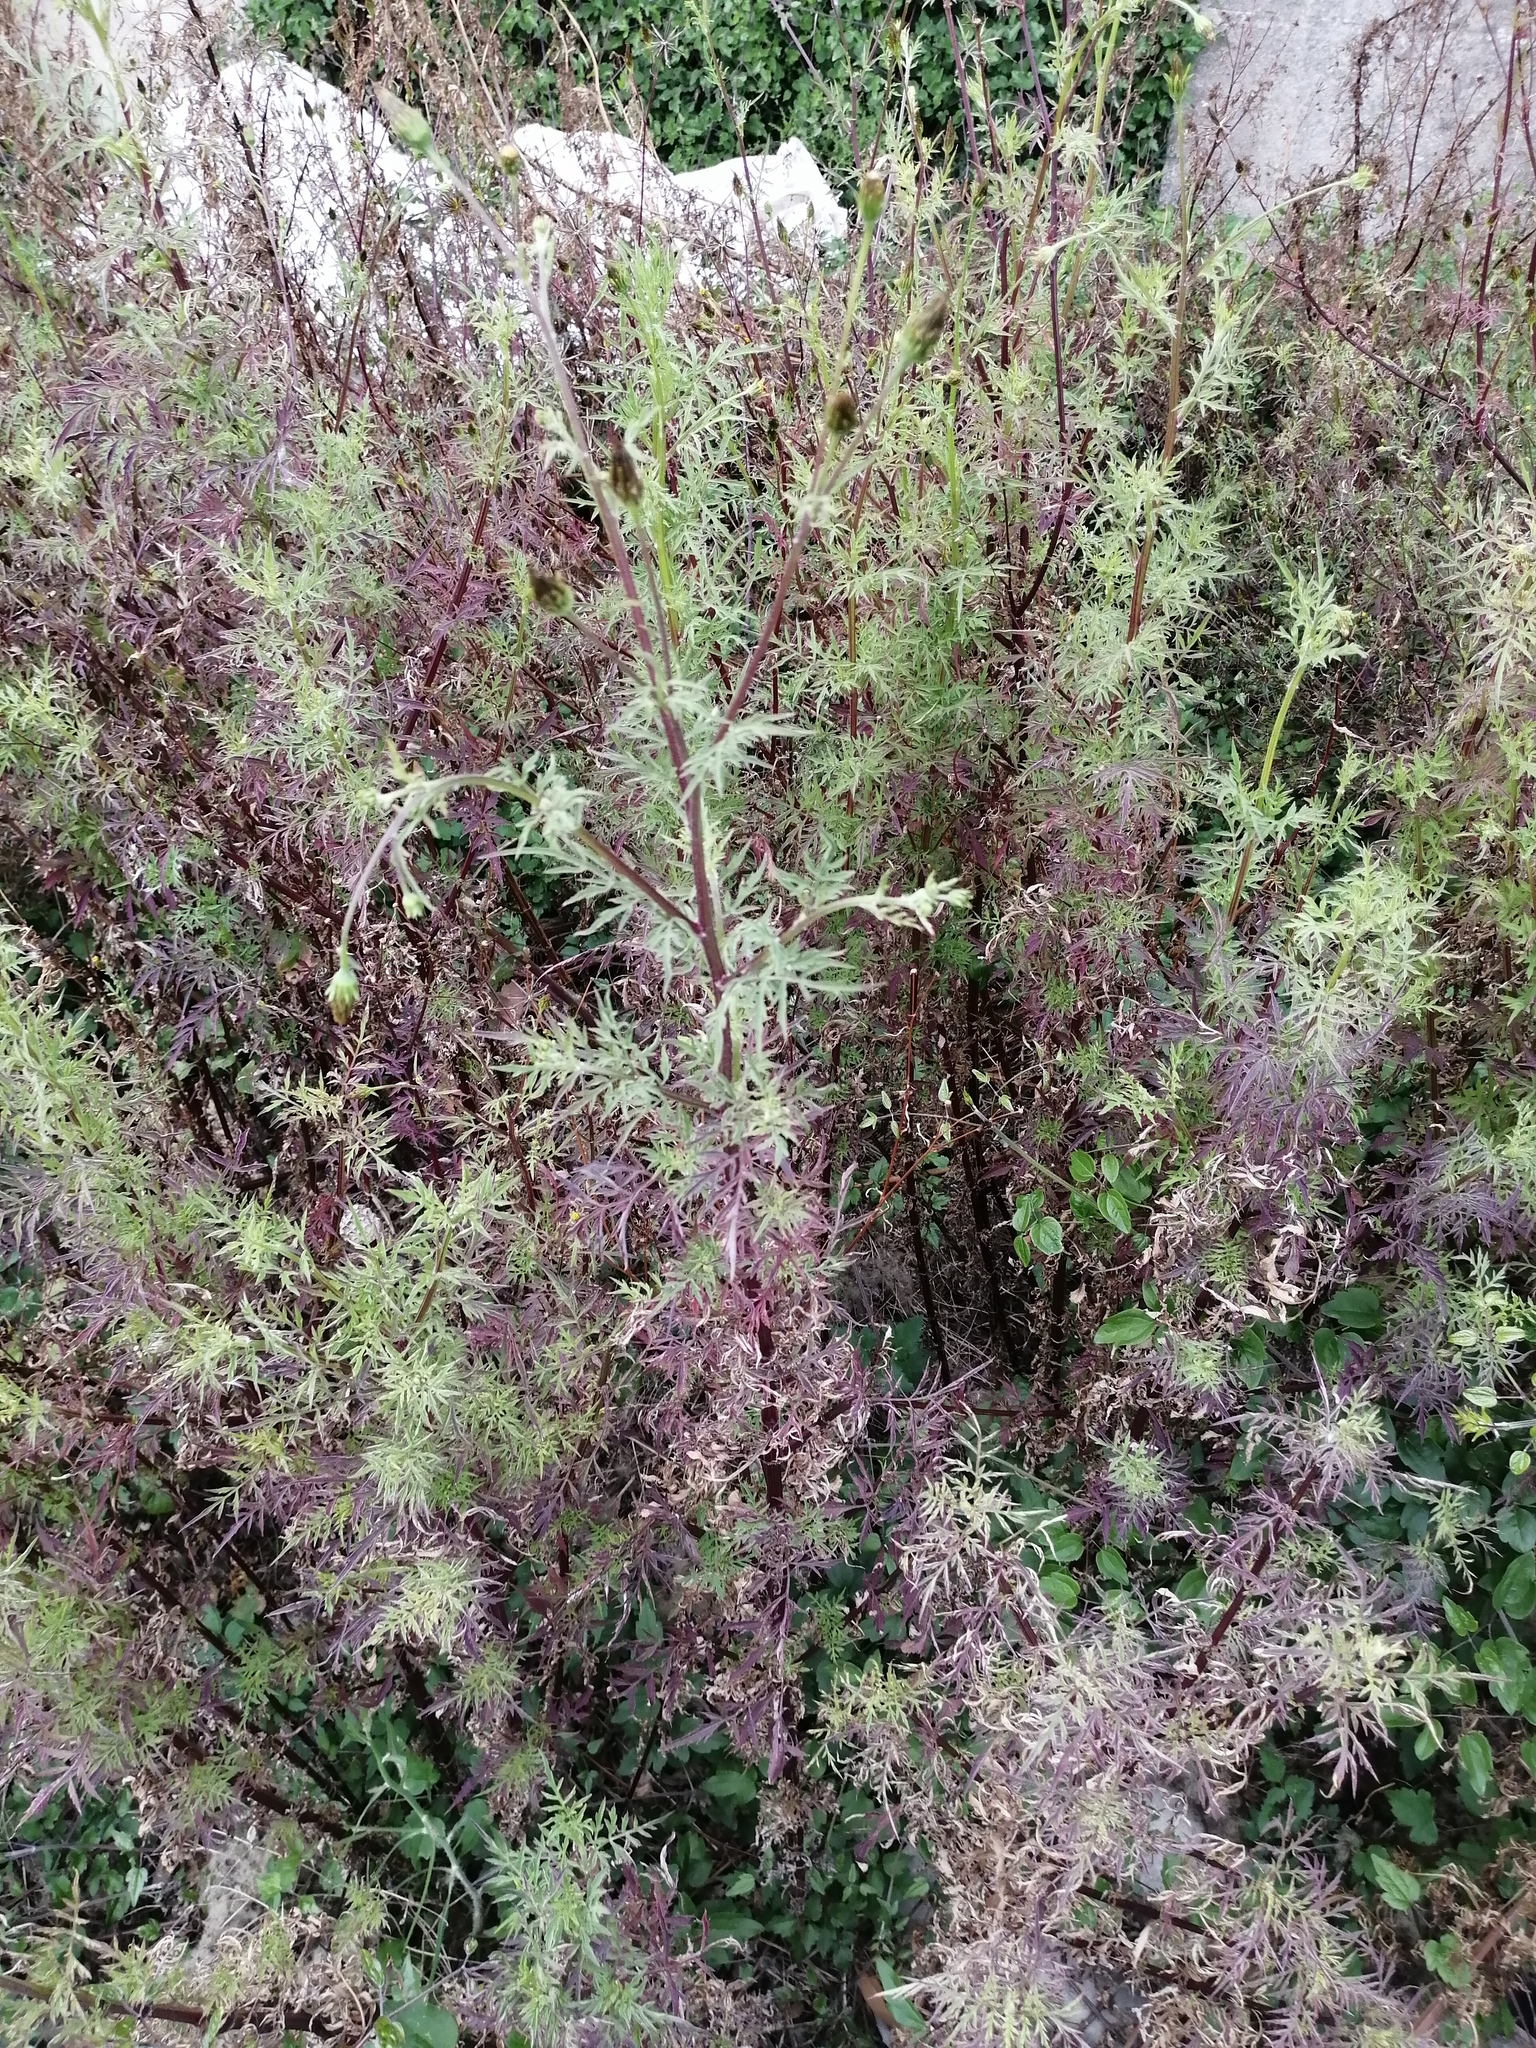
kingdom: Plantae
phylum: Tracheophyta
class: Magnoliopsida
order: Asterales
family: Asteraceae
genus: Bidens
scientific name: Bidens subalternans
